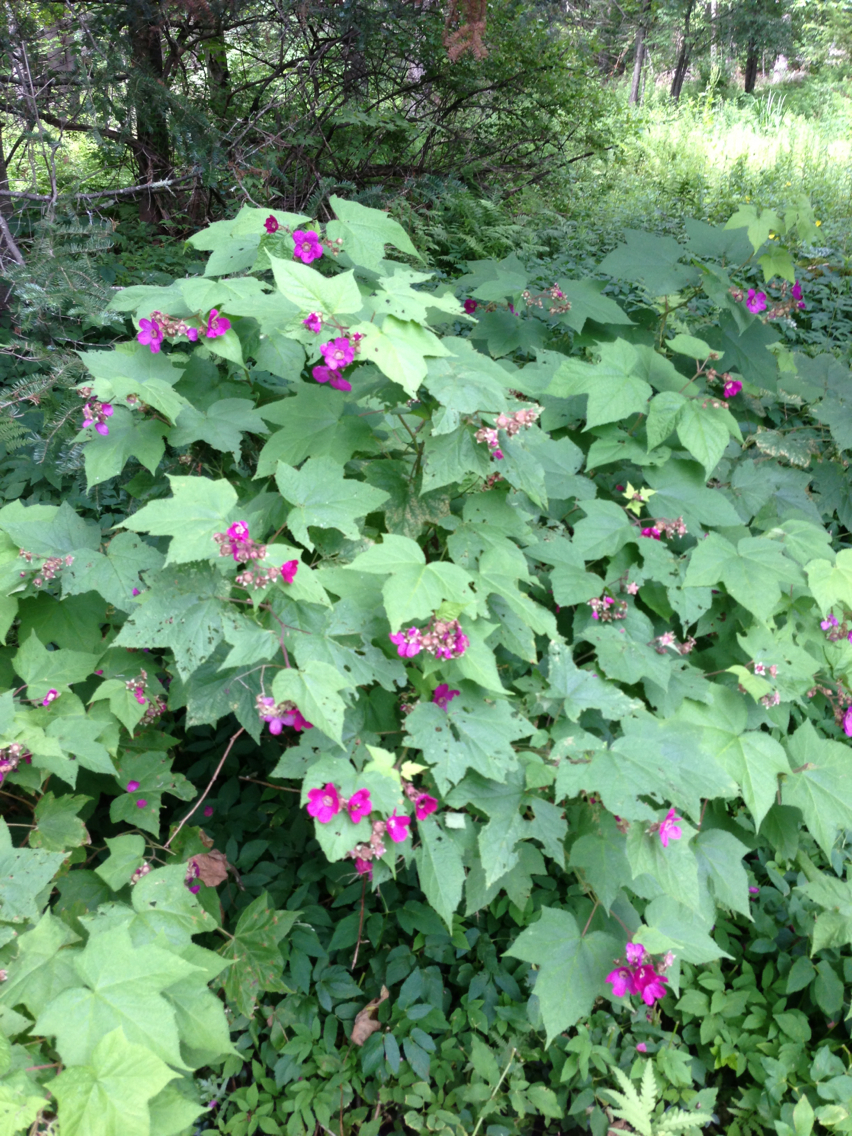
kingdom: Plantae
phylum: Tracheophyta
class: Magnoliopsida
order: Rosales
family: Rosaceae
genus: Rubus
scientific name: Rubus odoratus
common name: Purple-flowered raspberry
